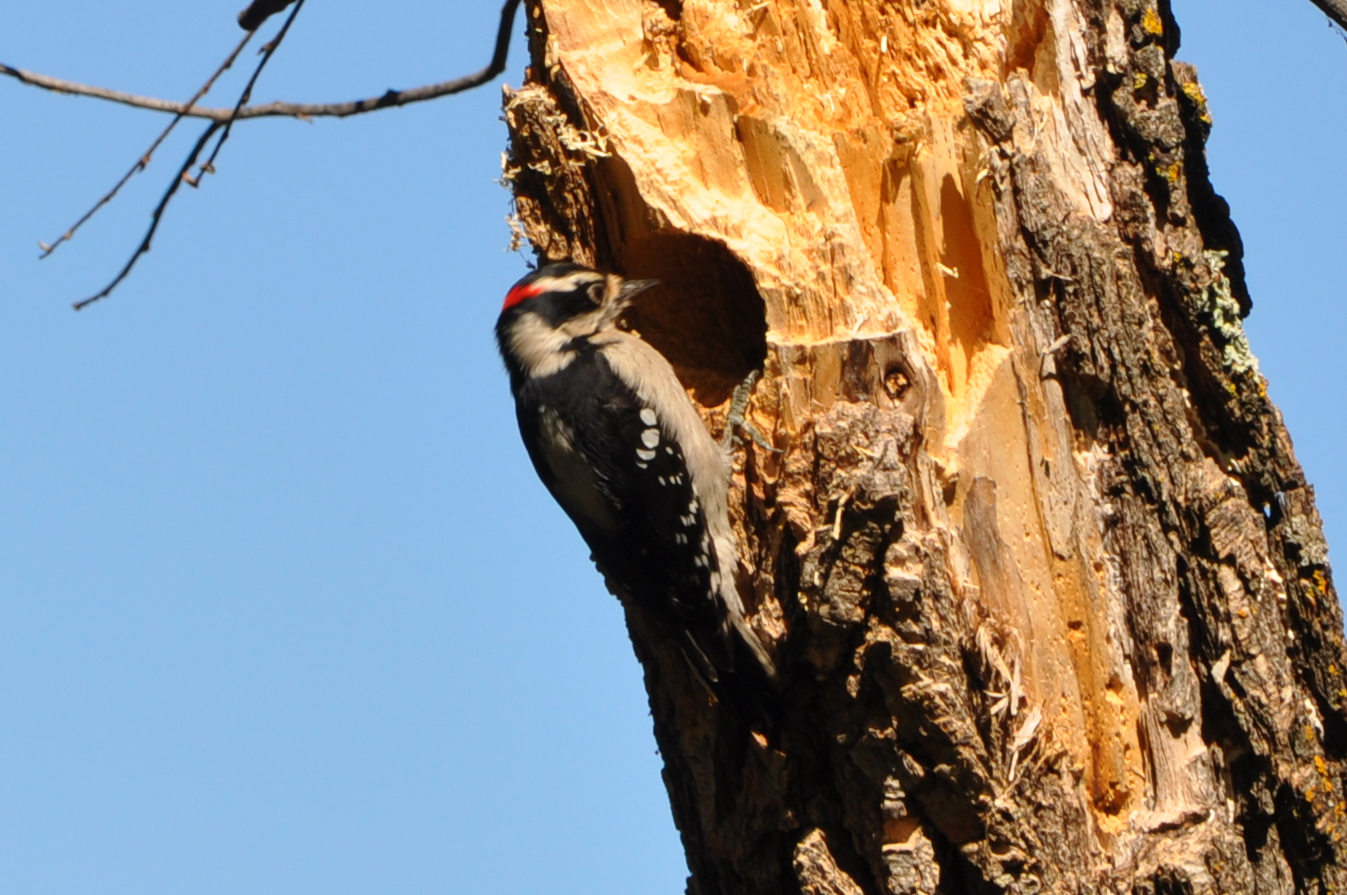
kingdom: Animalia
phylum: Chordata
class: Aves
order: Piciformes
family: Picidae
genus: Dryobates
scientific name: Dryobates pubescens
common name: Downy woodpecker
